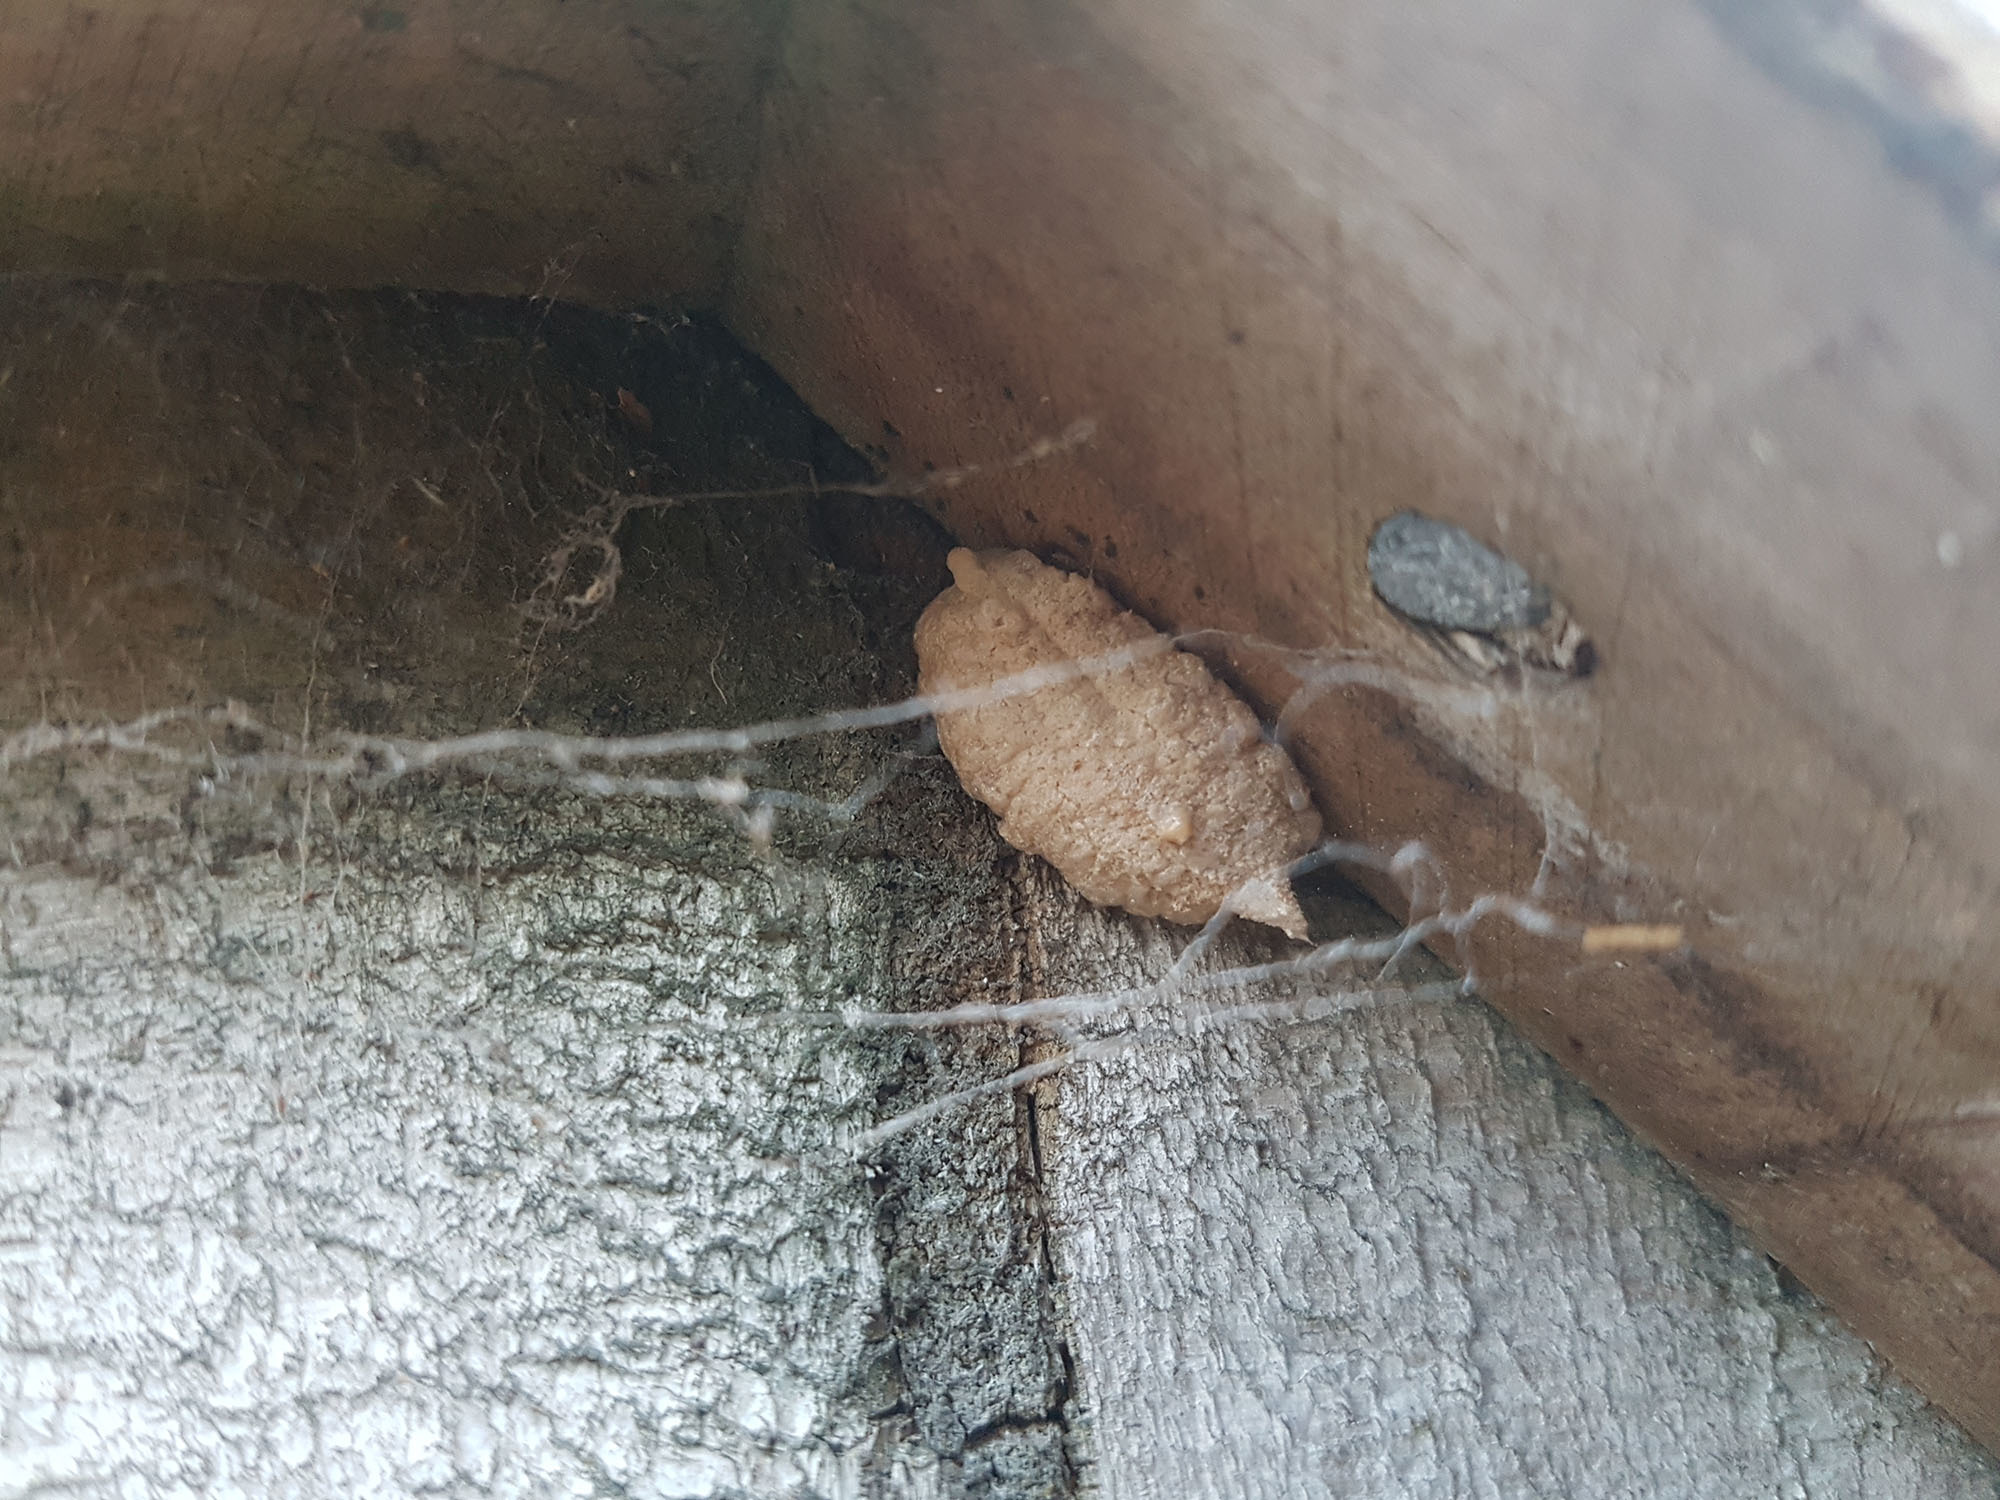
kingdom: Animalia
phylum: Arthropoda
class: Insecta
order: Mantodea
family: Miomantidae
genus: Miomantis
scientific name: Miomantis caffra
